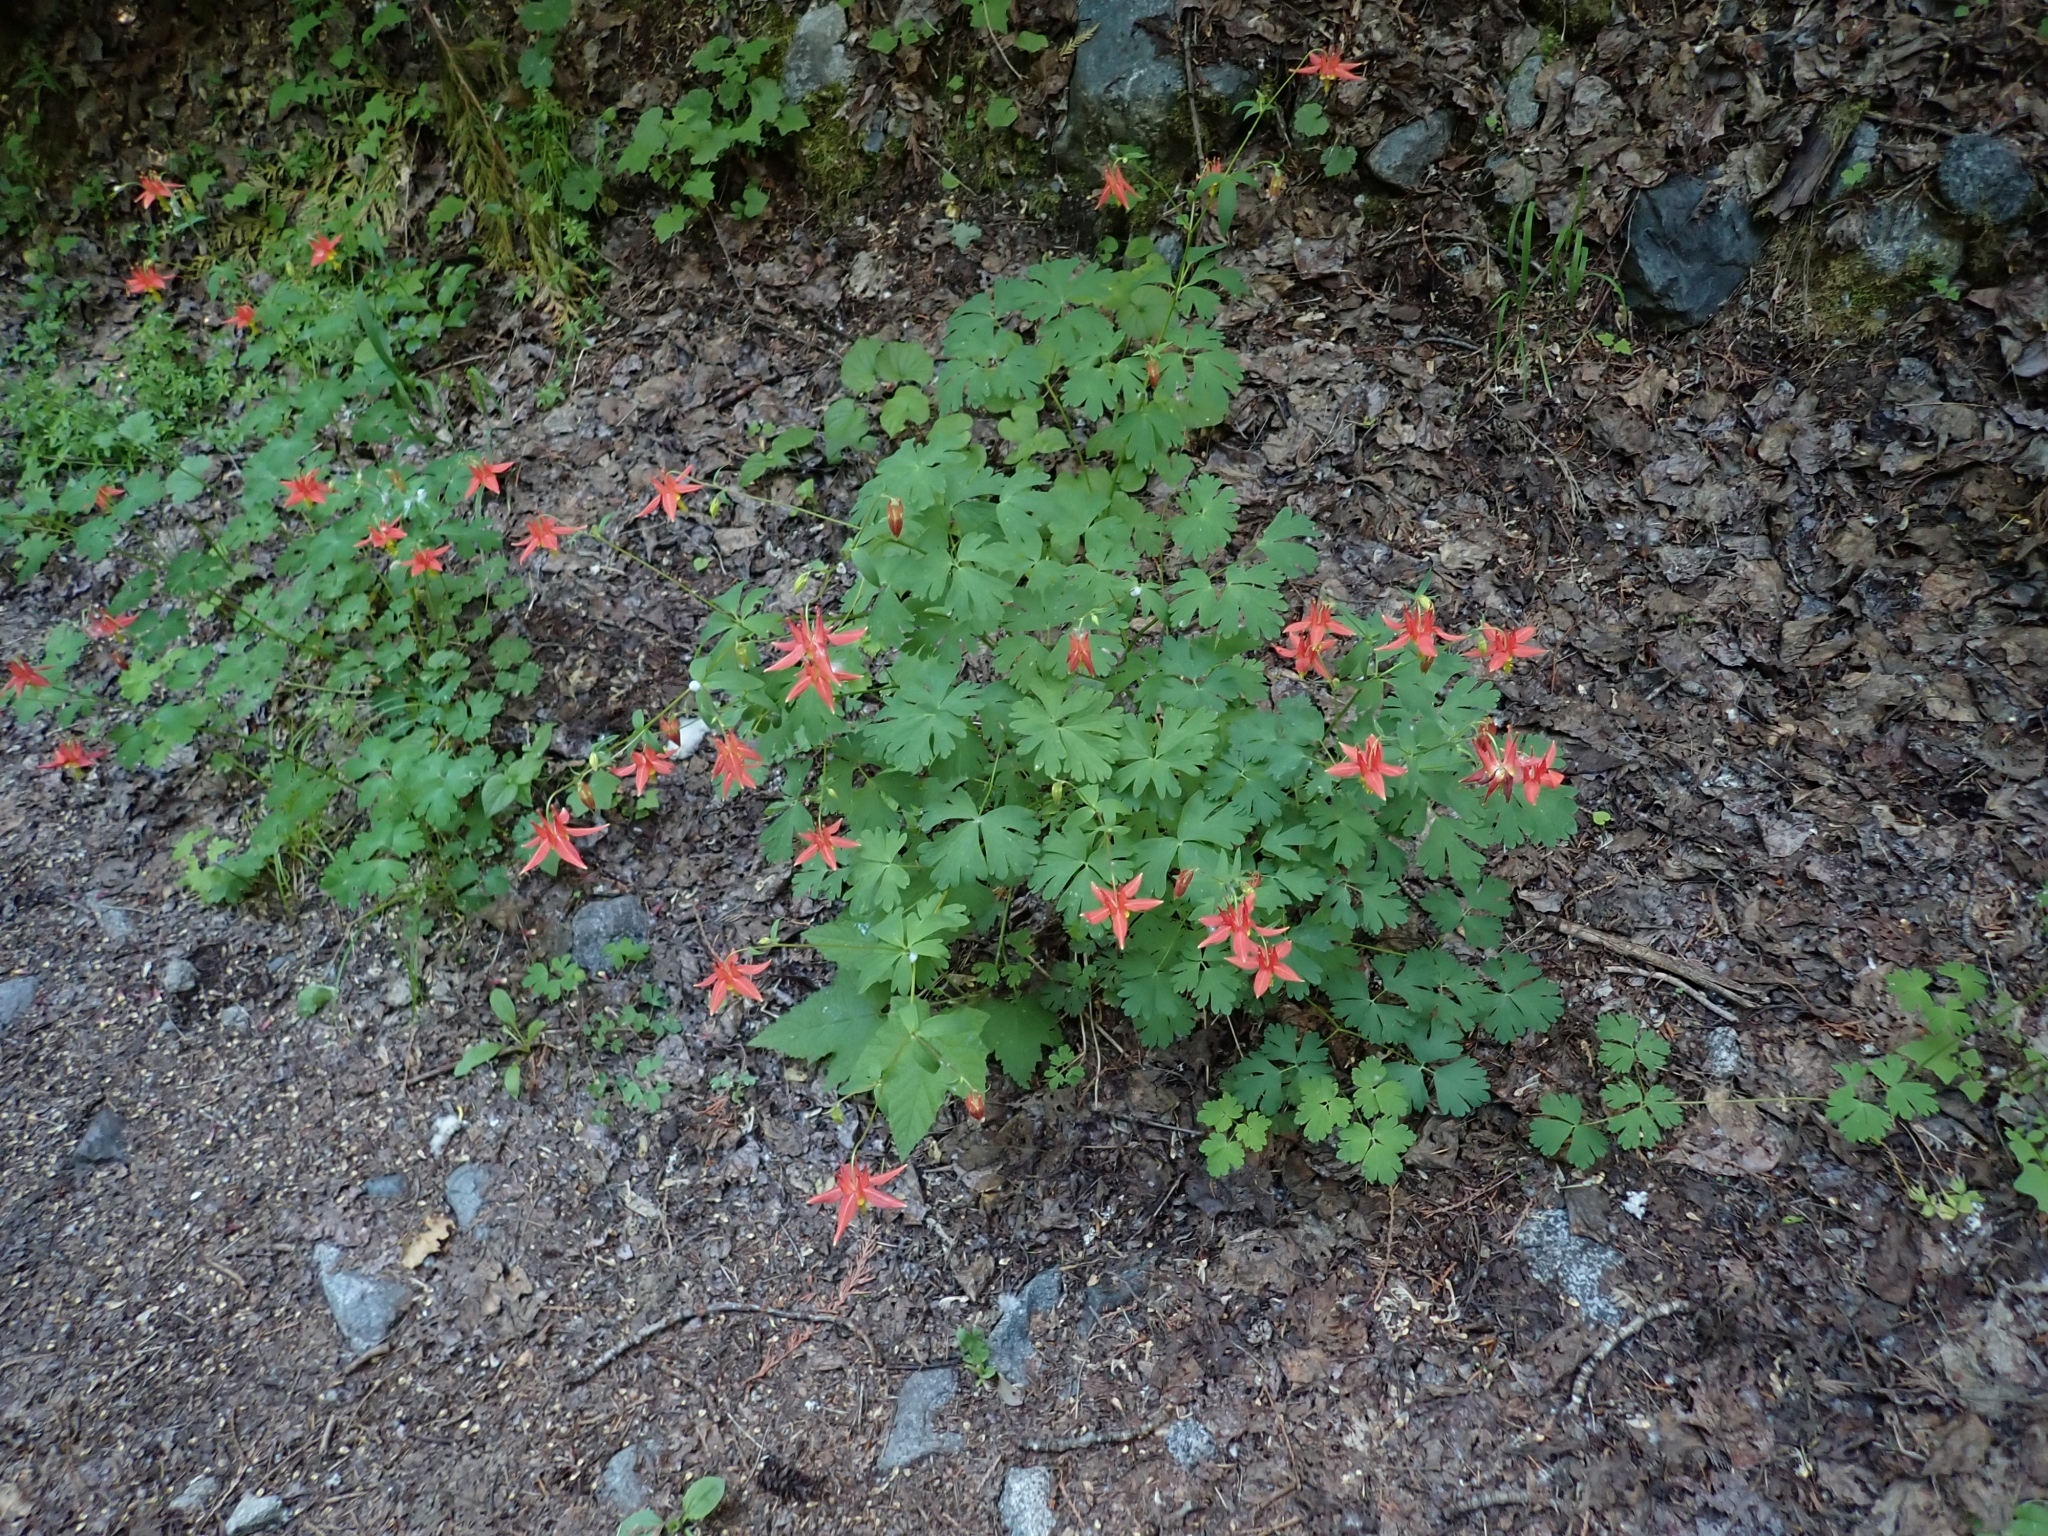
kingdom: Plantae
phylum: Tracheophyta
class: Magnoliopsida
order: Ranunculales
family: Ranunculaceae
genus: Aquilegia
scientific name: Aquilegia formosa
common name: Sitka columbine
